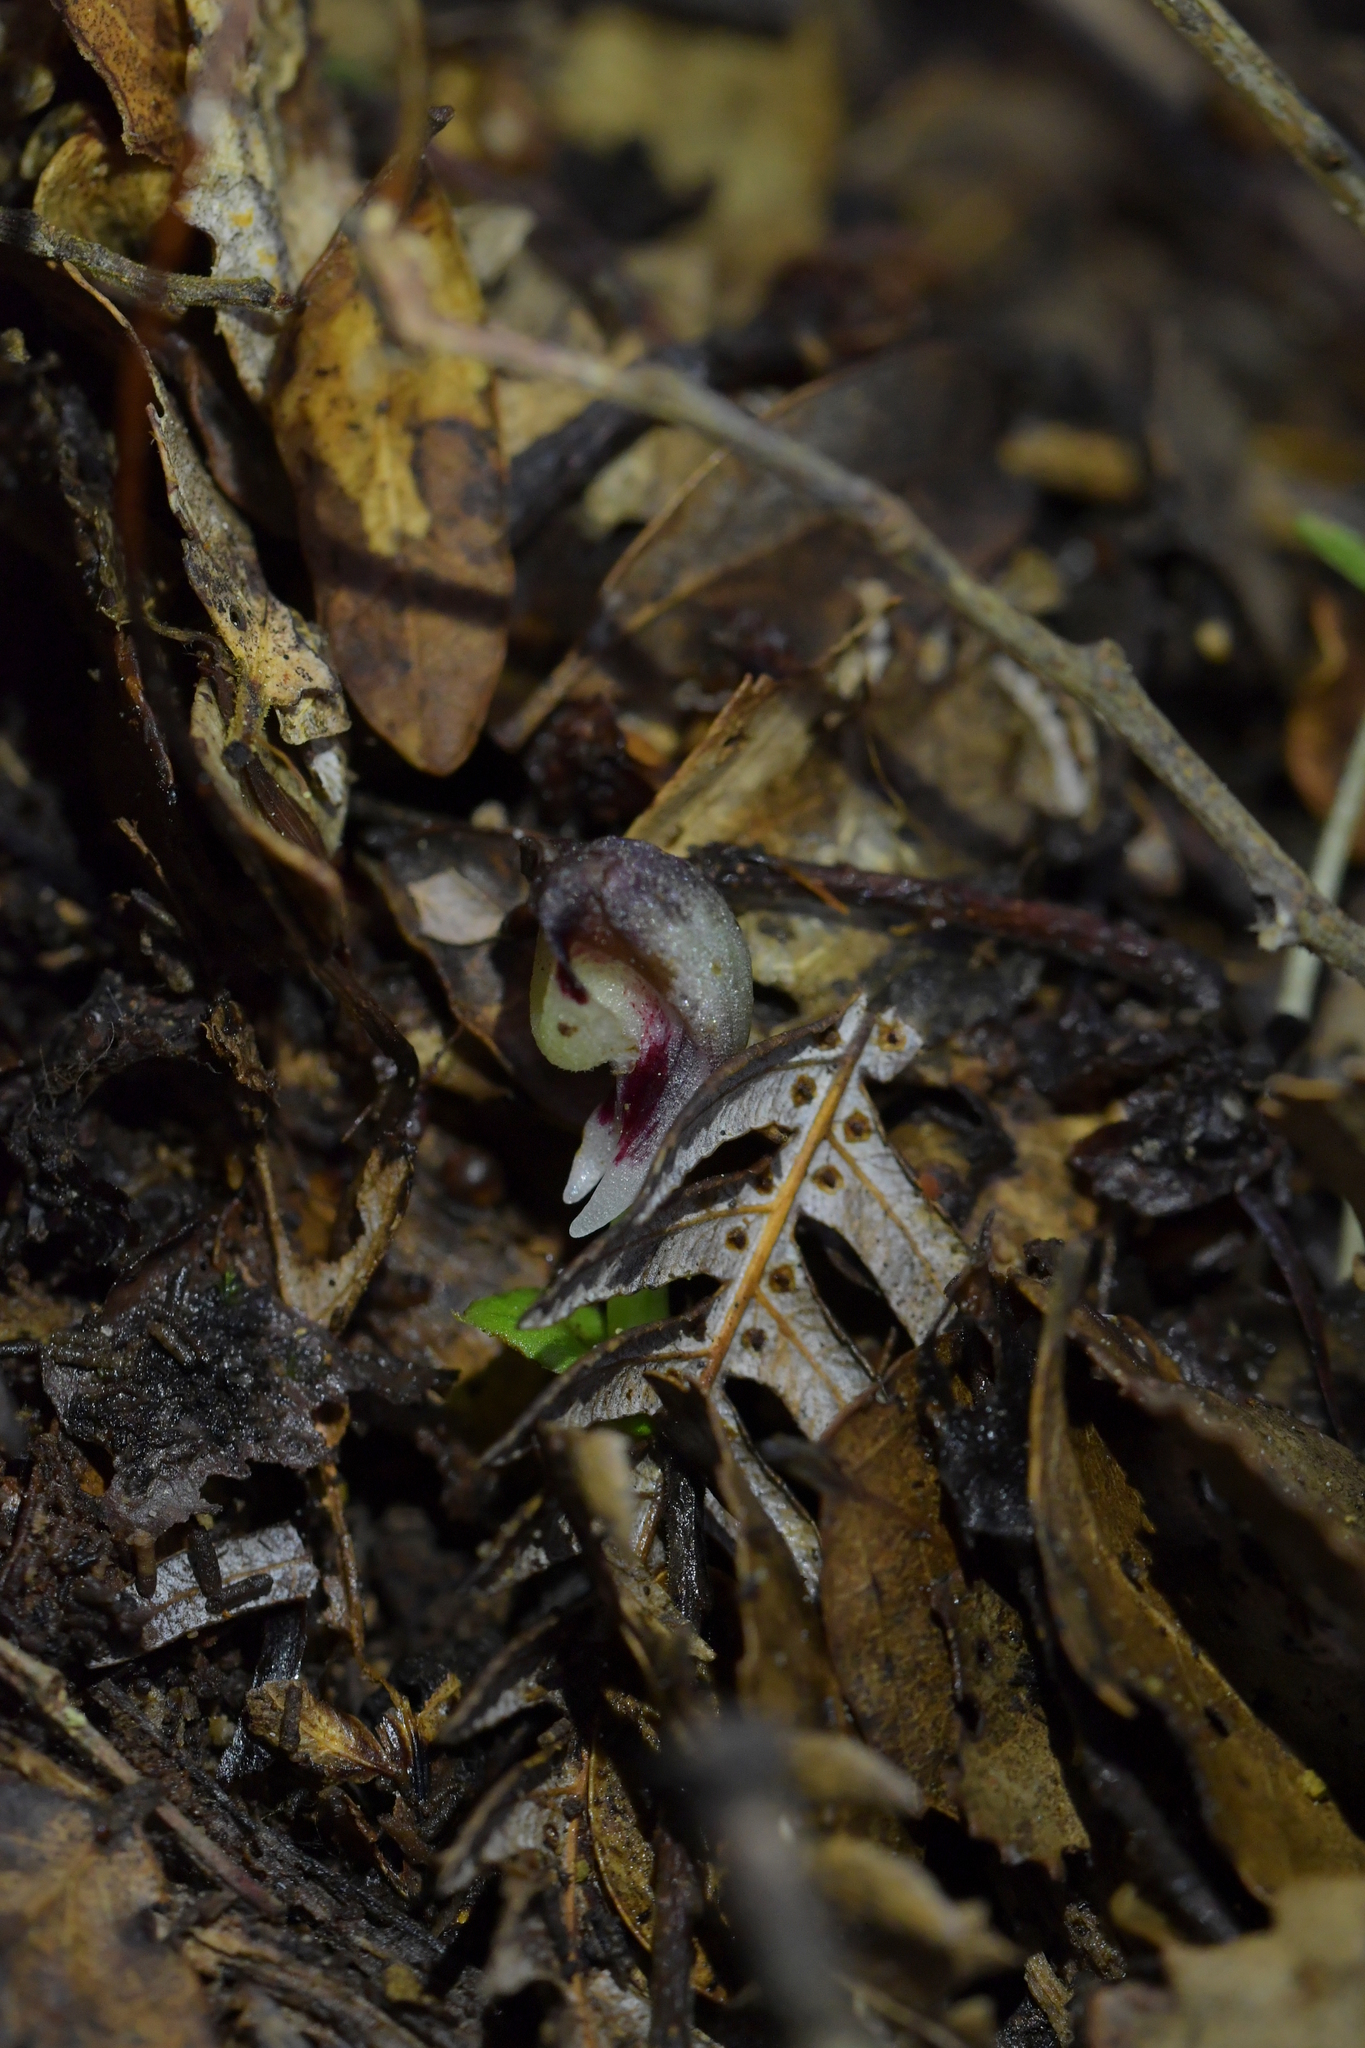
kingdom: Plantae
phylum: Tracheophyta
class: Liliopsida
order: Asparagales
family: Orchidaceae
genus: Corybas
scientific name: Corybas cheesemanii
